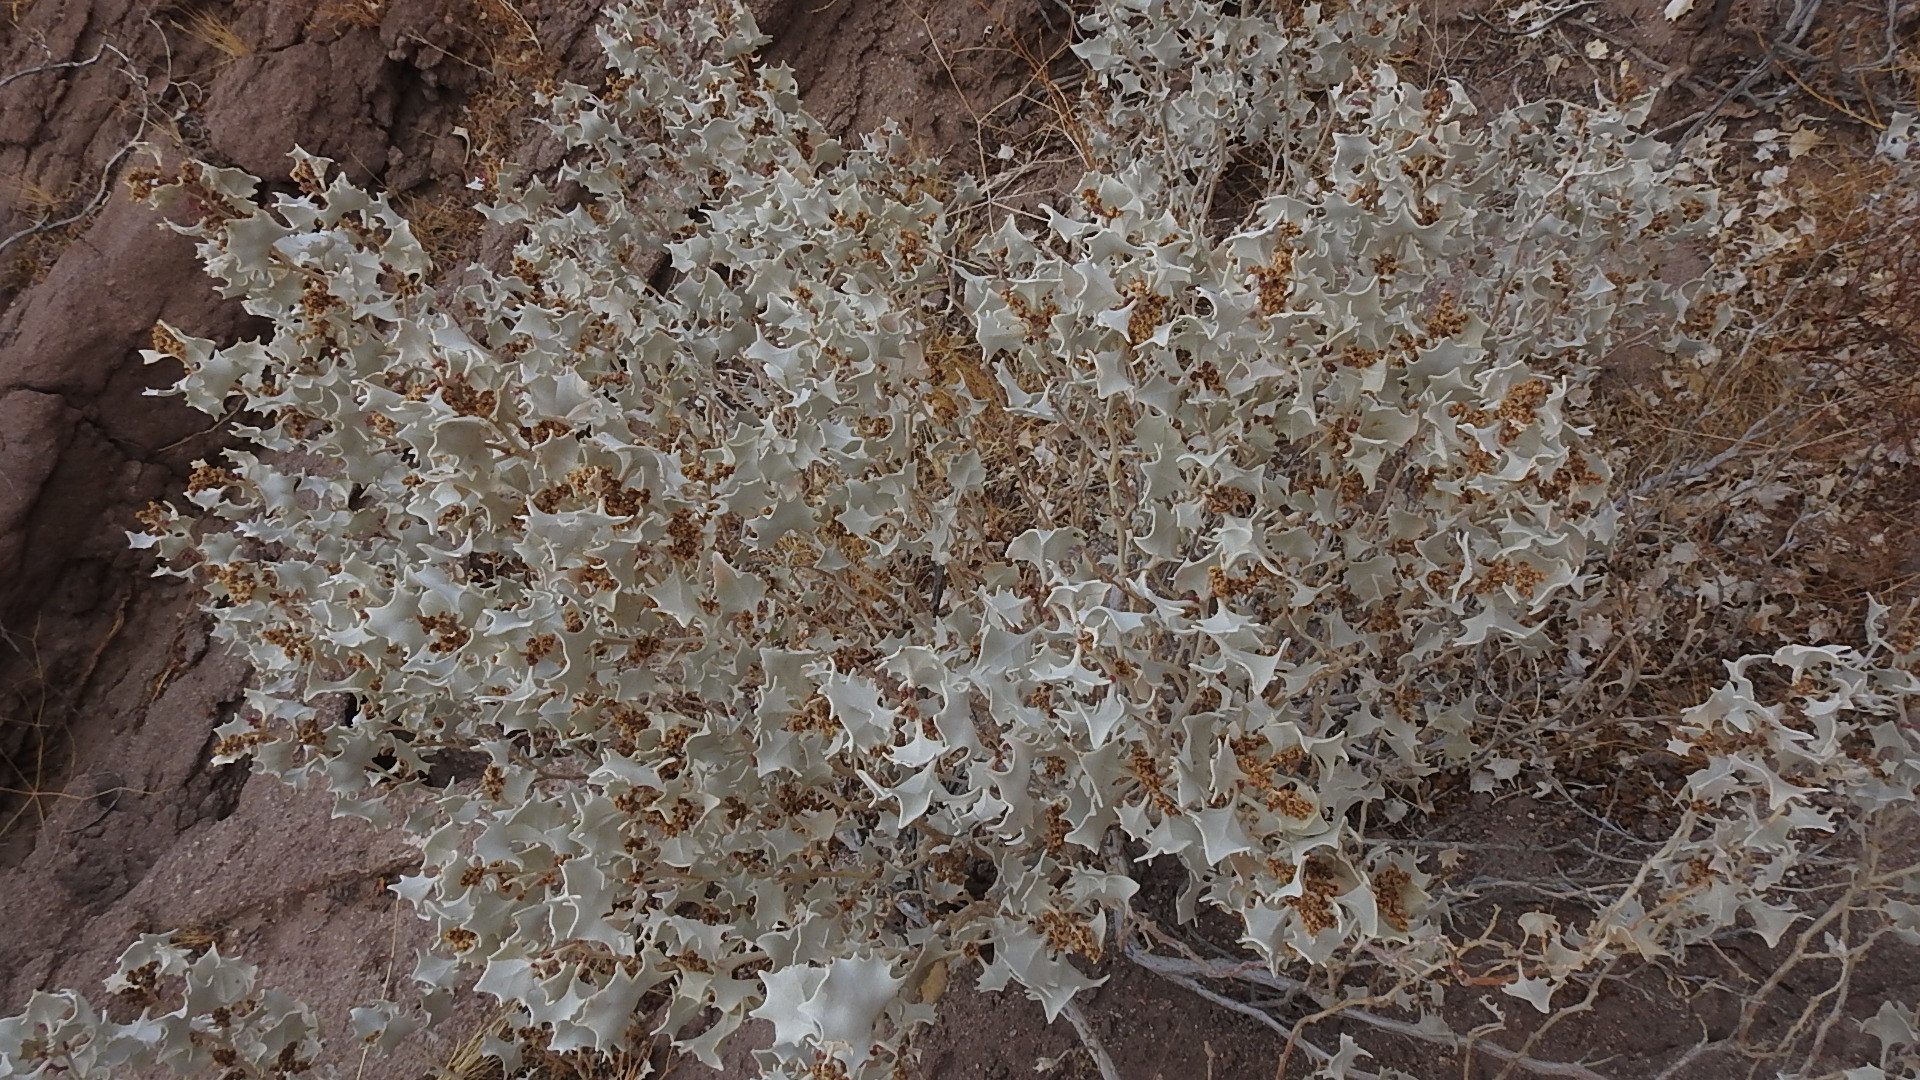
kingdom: Plantae
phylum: Tracheophyta
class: Magnoliopsida
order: Caryophyllales
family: Amaranthaceae
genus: Atriplex
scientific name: Atriplex hymenelytra
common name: Desert-holly
